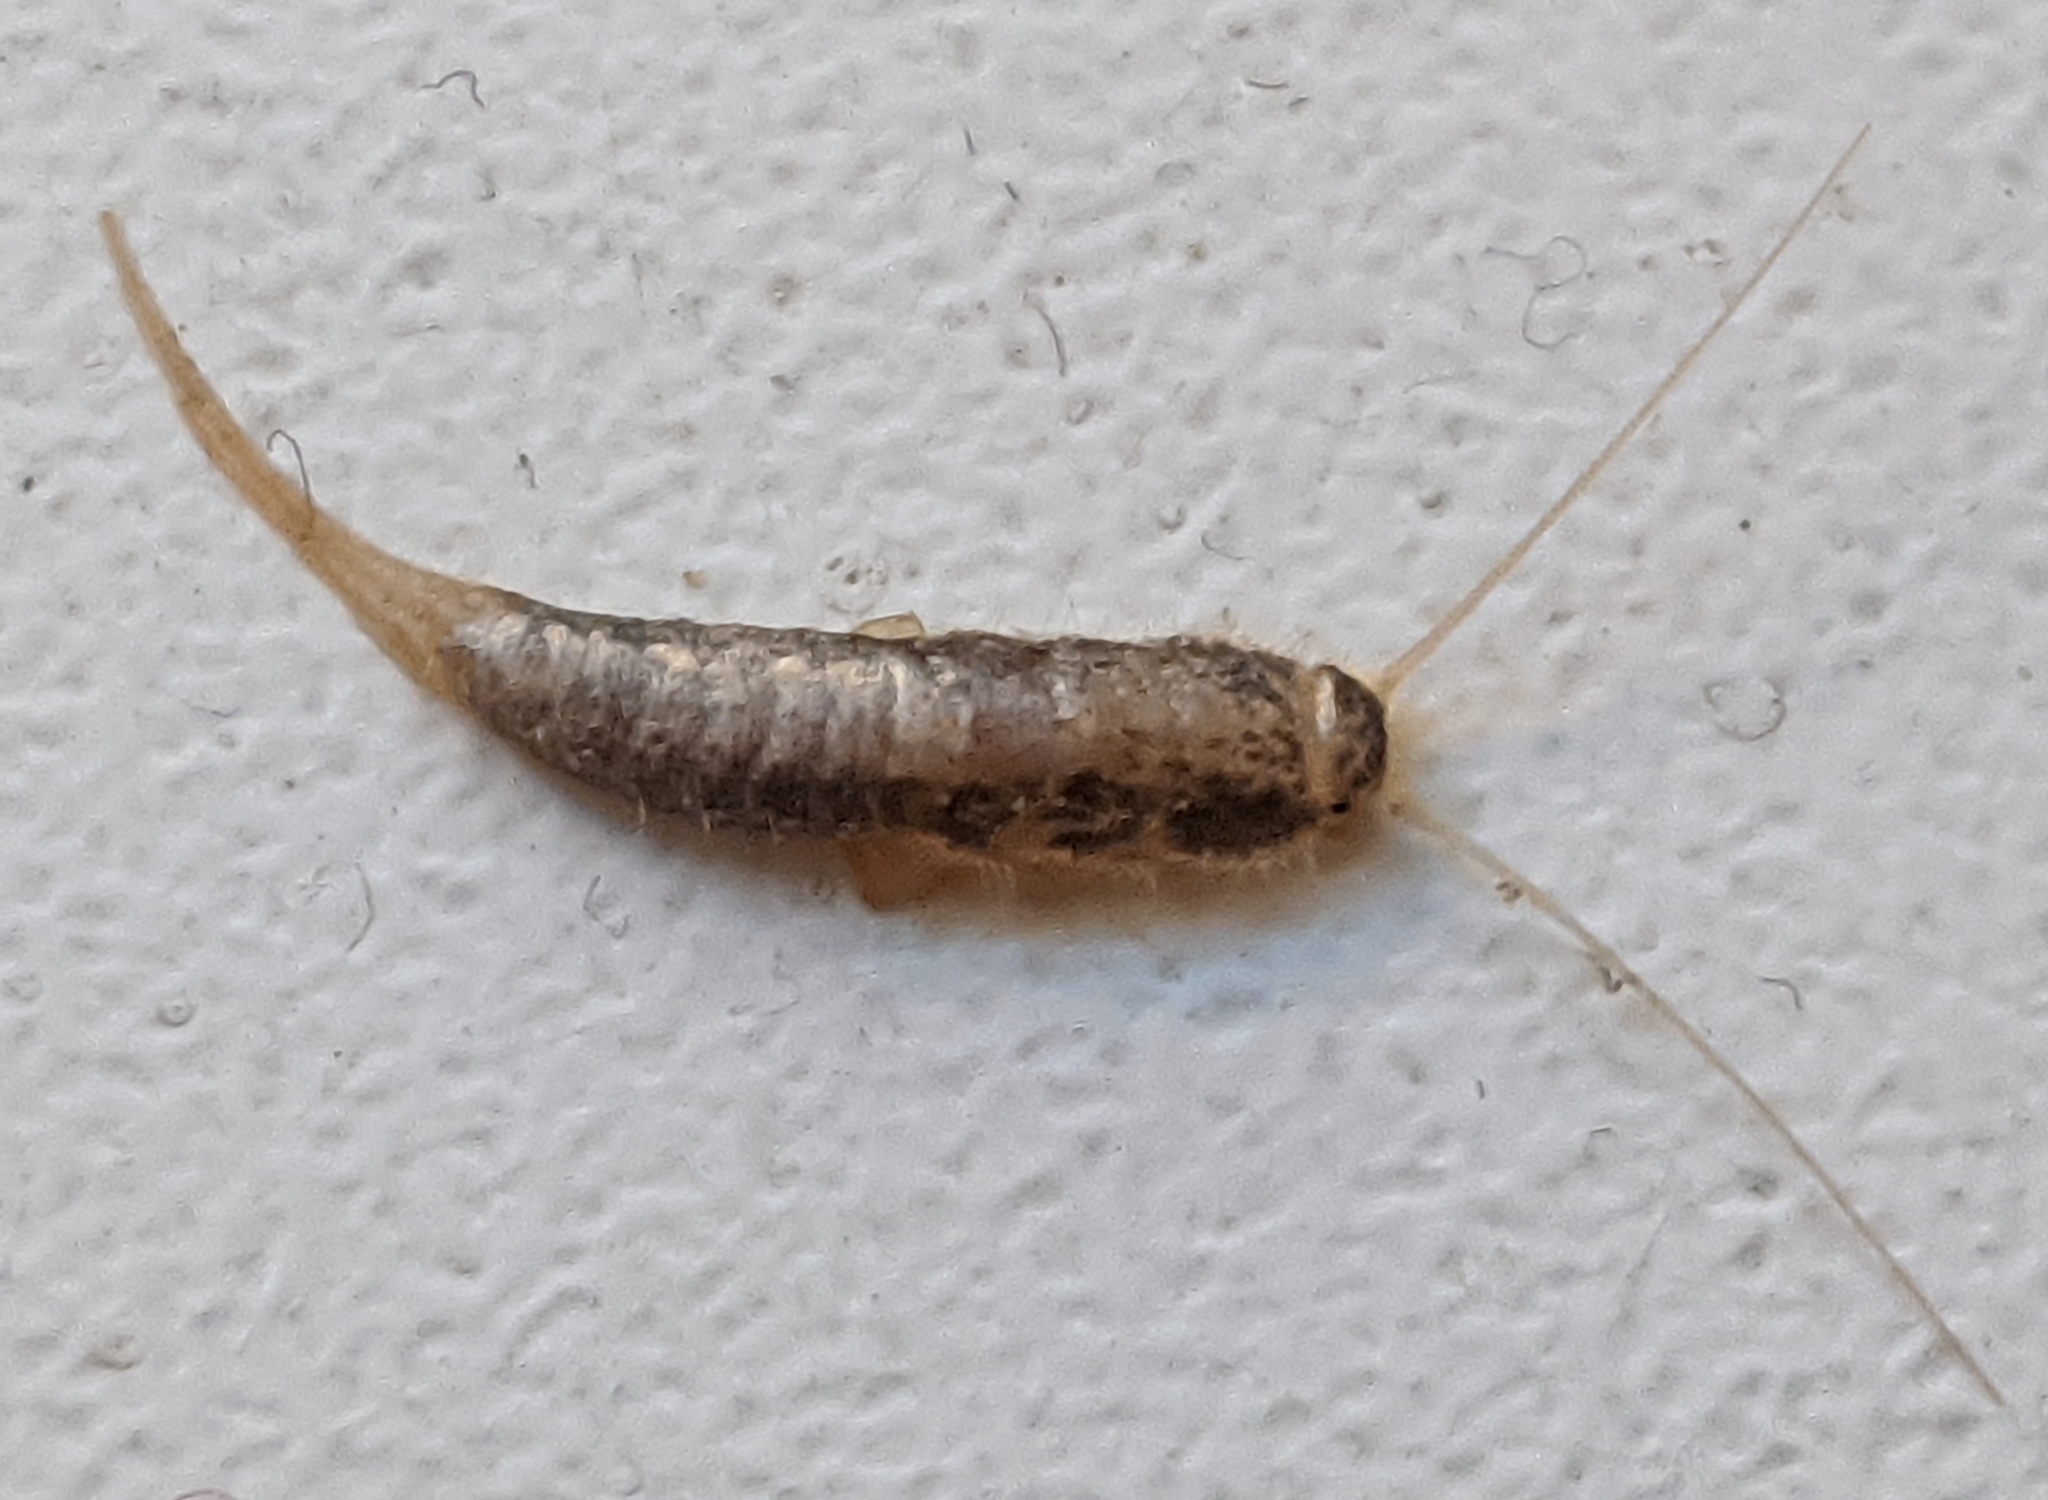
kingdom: Animalia
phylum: Arthropoda
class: Insecta
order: Zygentoma
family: Lepismatidae
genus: Lepisma
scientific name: Lepisma saccharinum
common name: Silverfish
